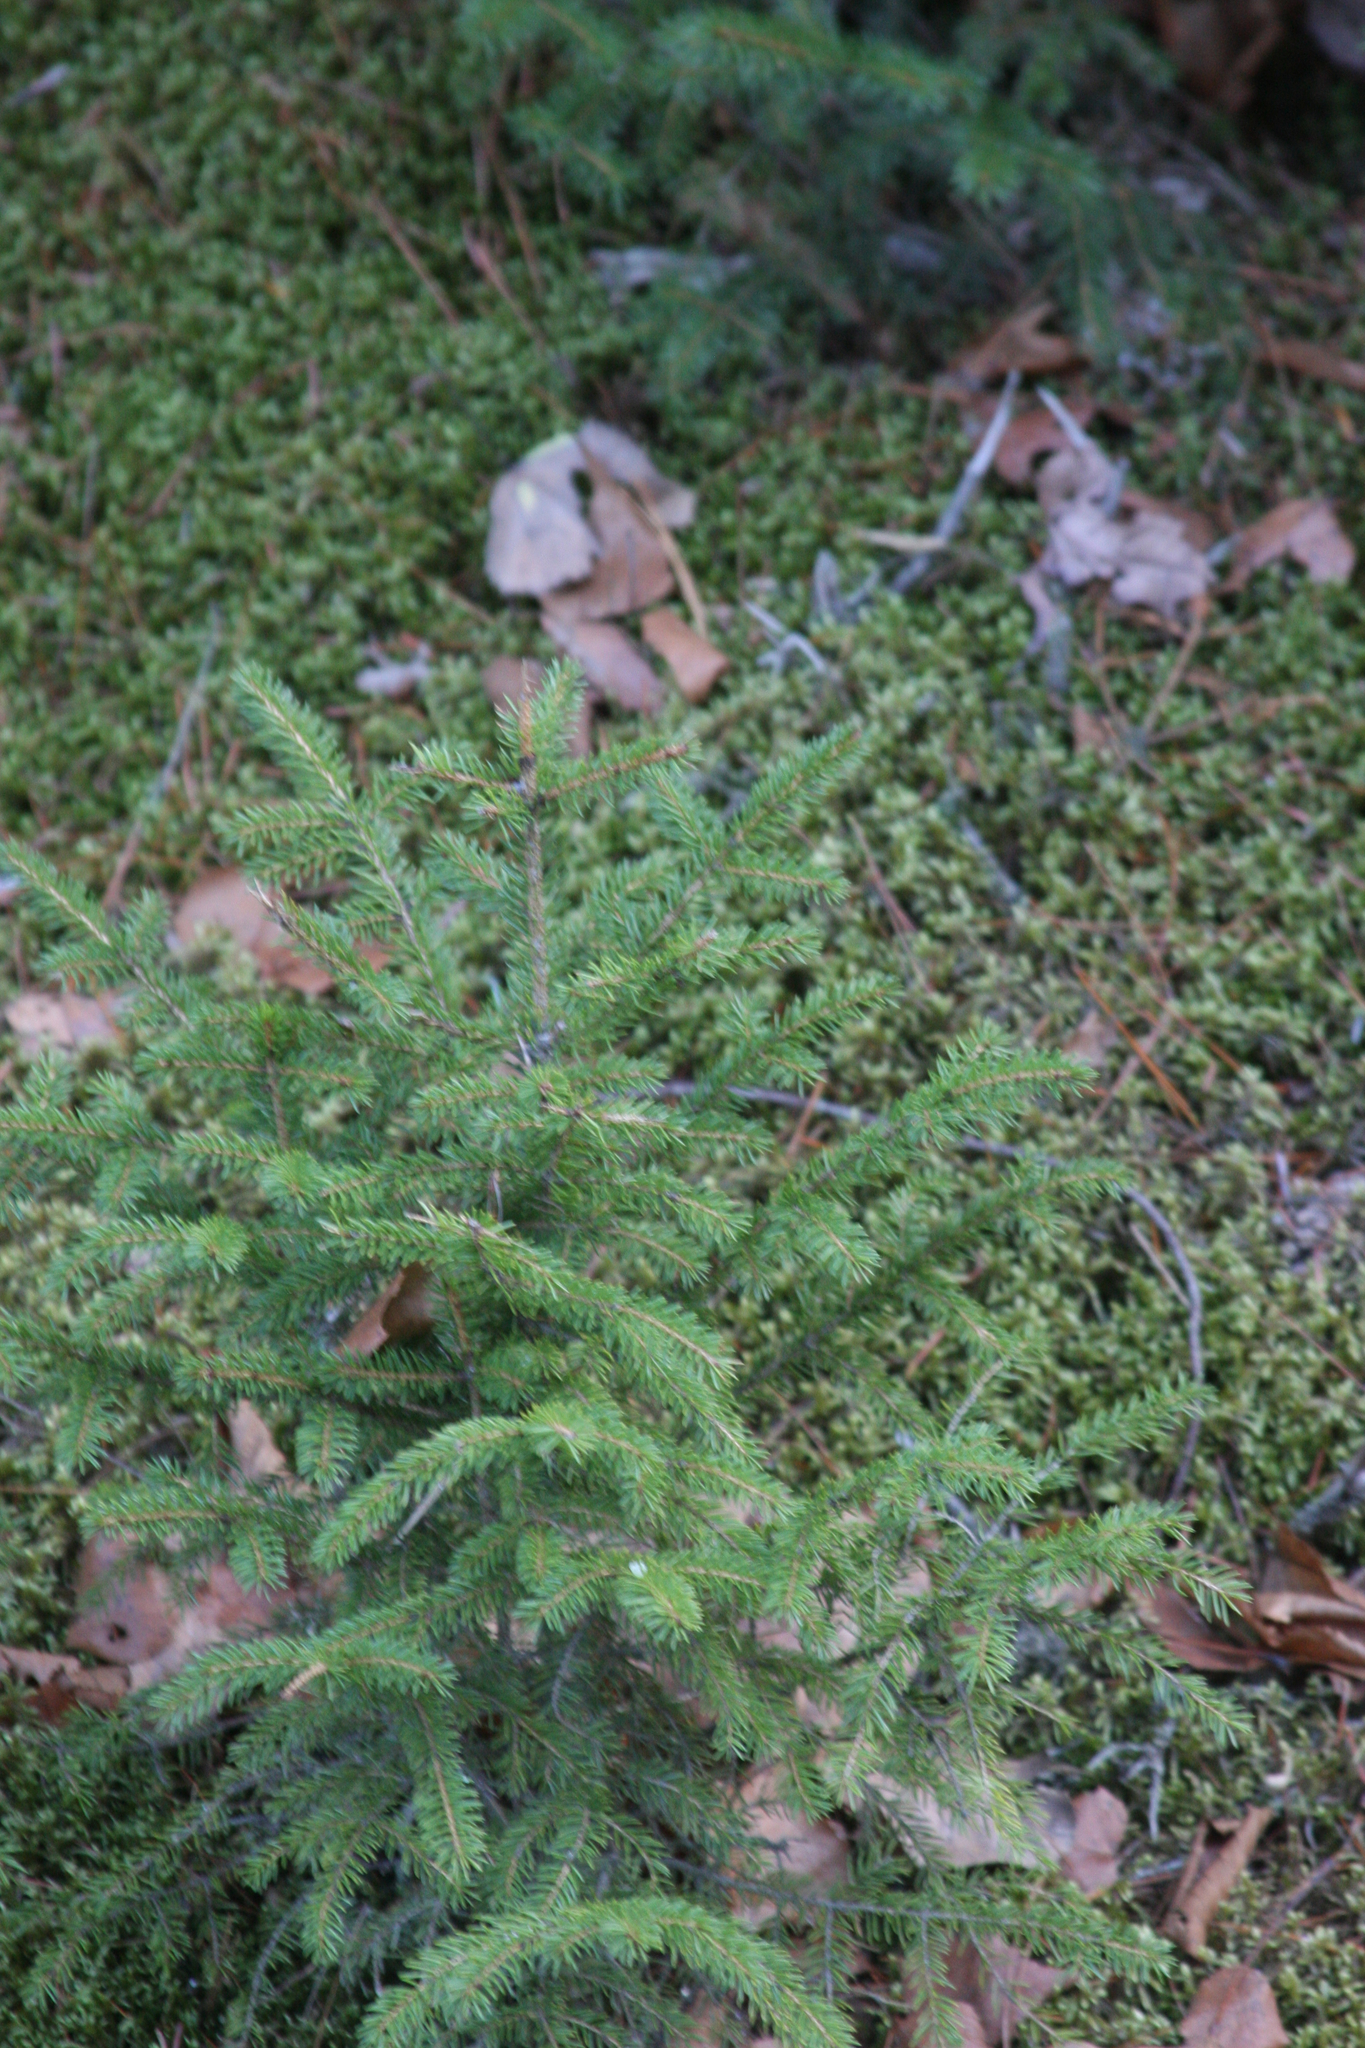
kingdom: Plantae
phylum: Tracheophyta
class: Pinopsida
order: Pinales
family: Pinaceae
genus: Picea
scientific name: Picea rubens
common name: Red spruce
